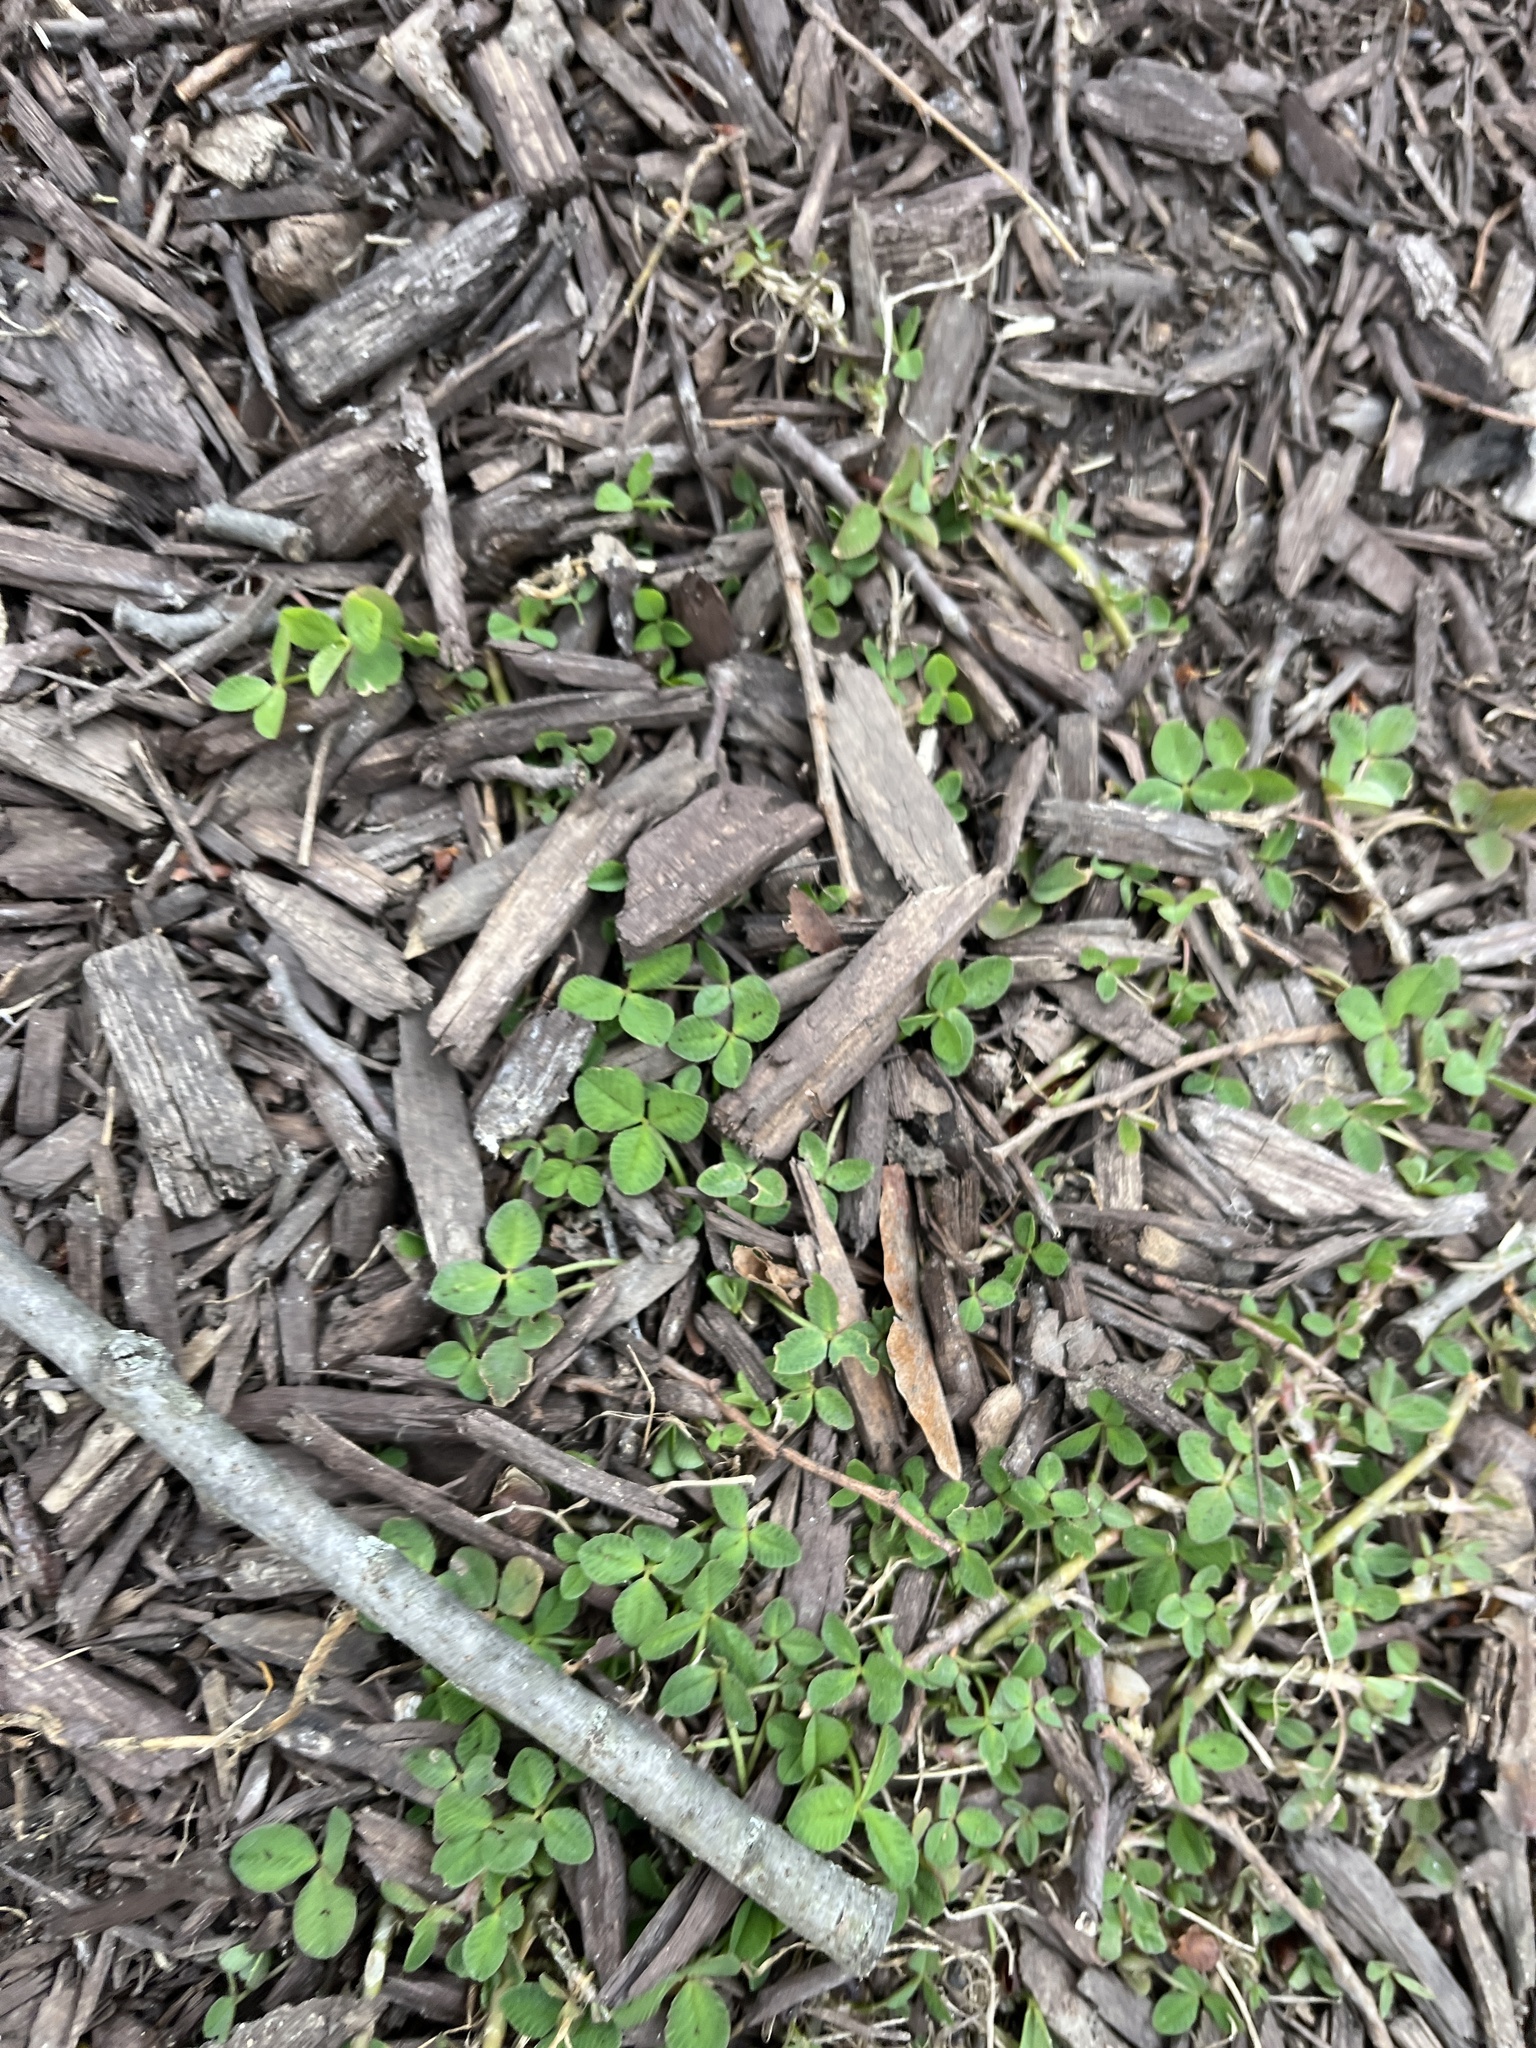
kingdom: Plantae
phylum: Tracheophyta
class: Magnoliopsida
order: Fabales
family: Fabaceae
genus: Trifolium
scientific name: Trifolium repens
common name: White clover
